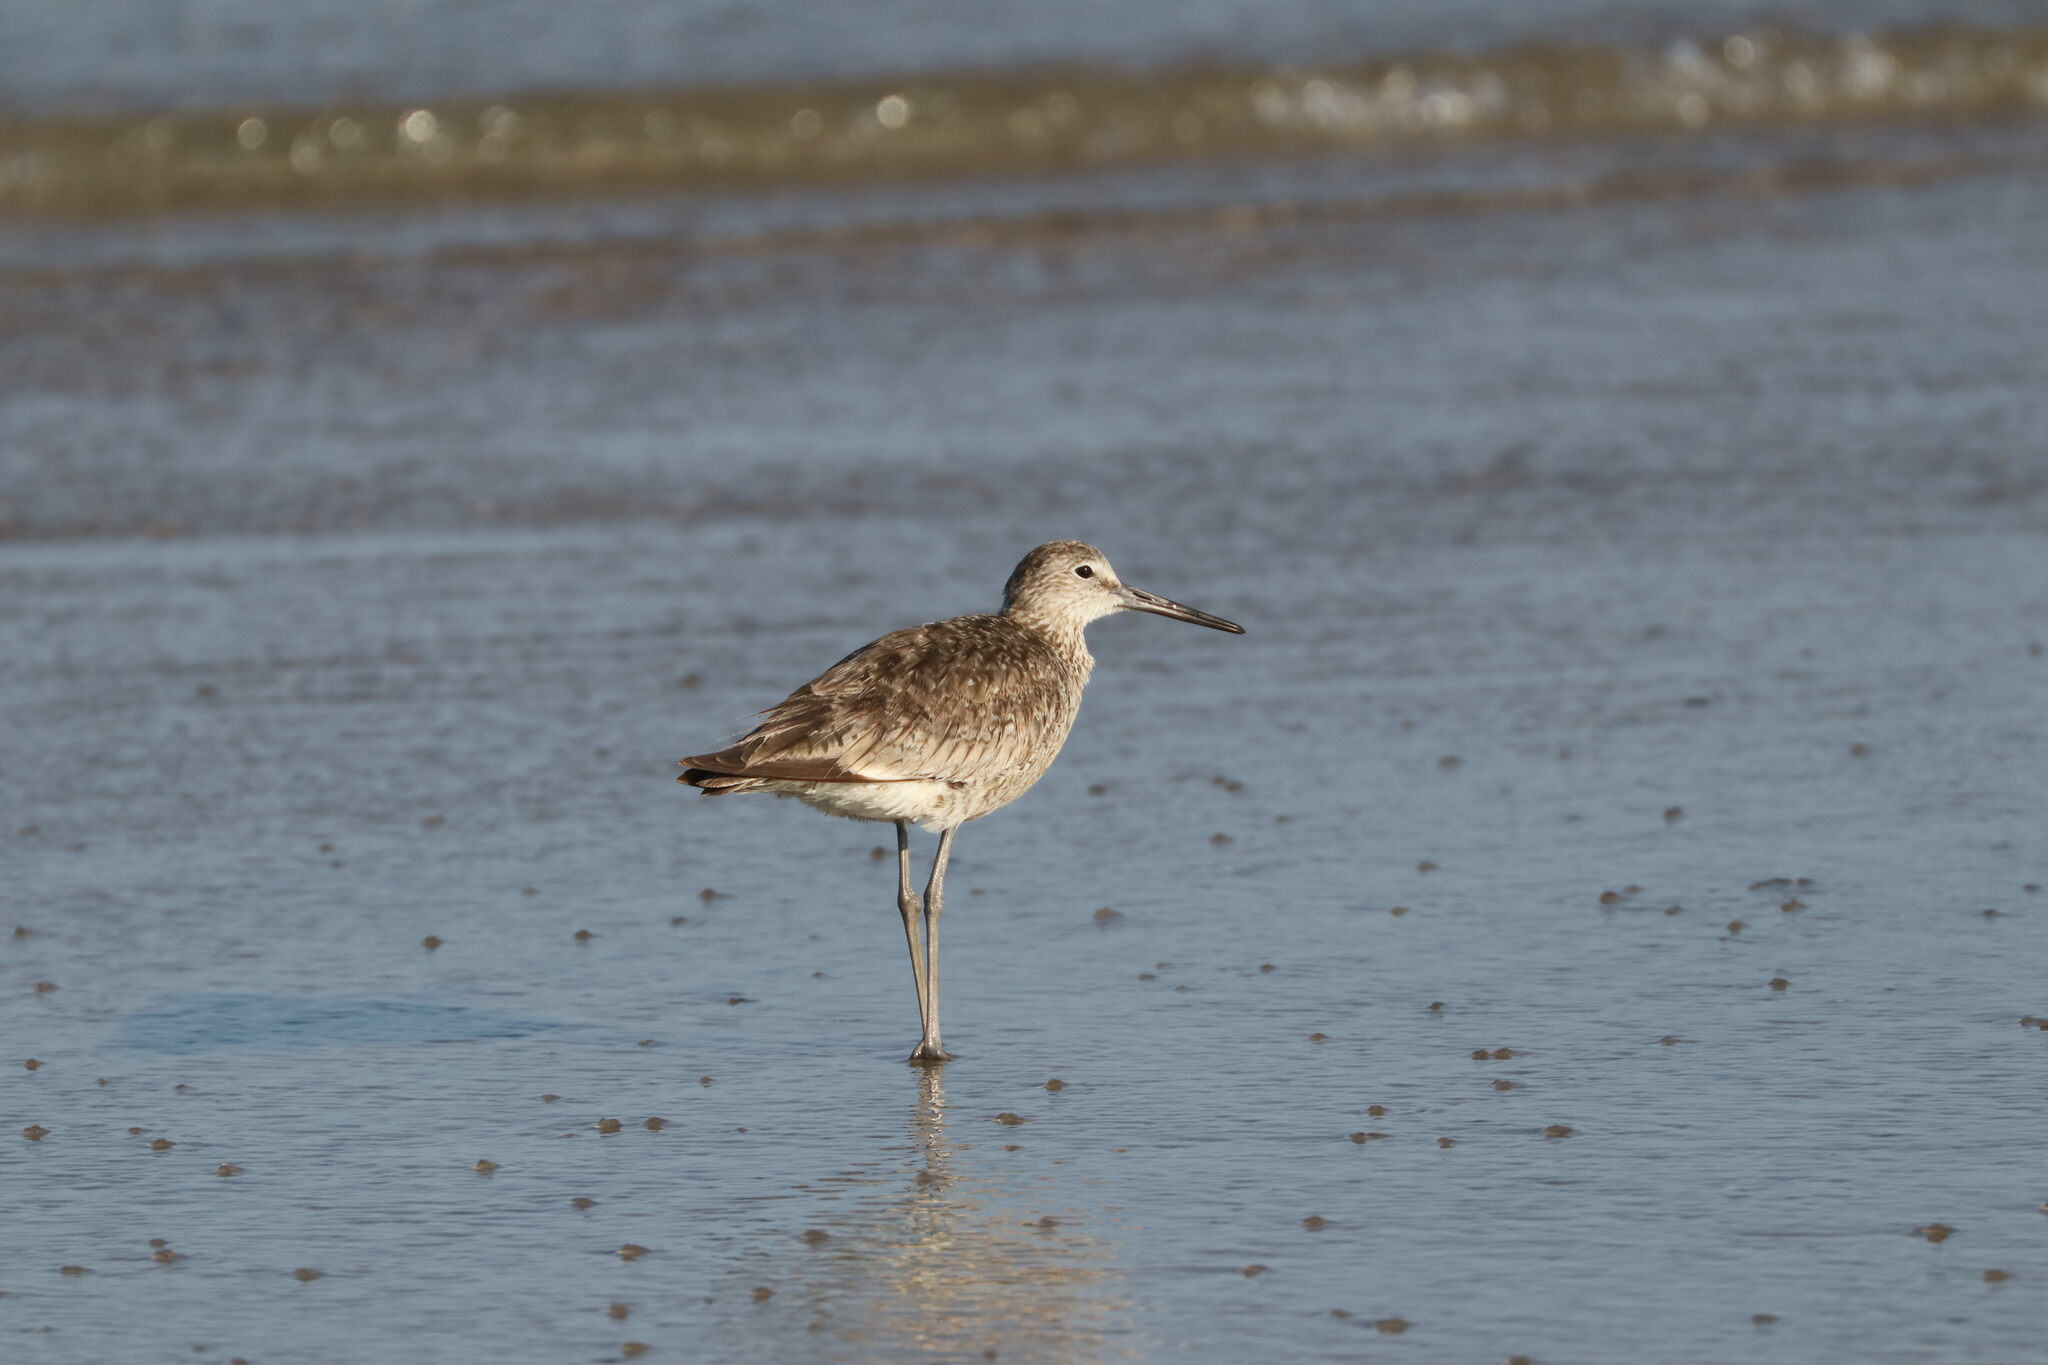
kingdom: Animalia
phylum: Chordata
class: Aves
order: Charadriiformes
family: Scolopacidae
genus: Tringa
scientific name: Tringa semipalmata
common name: Willet
